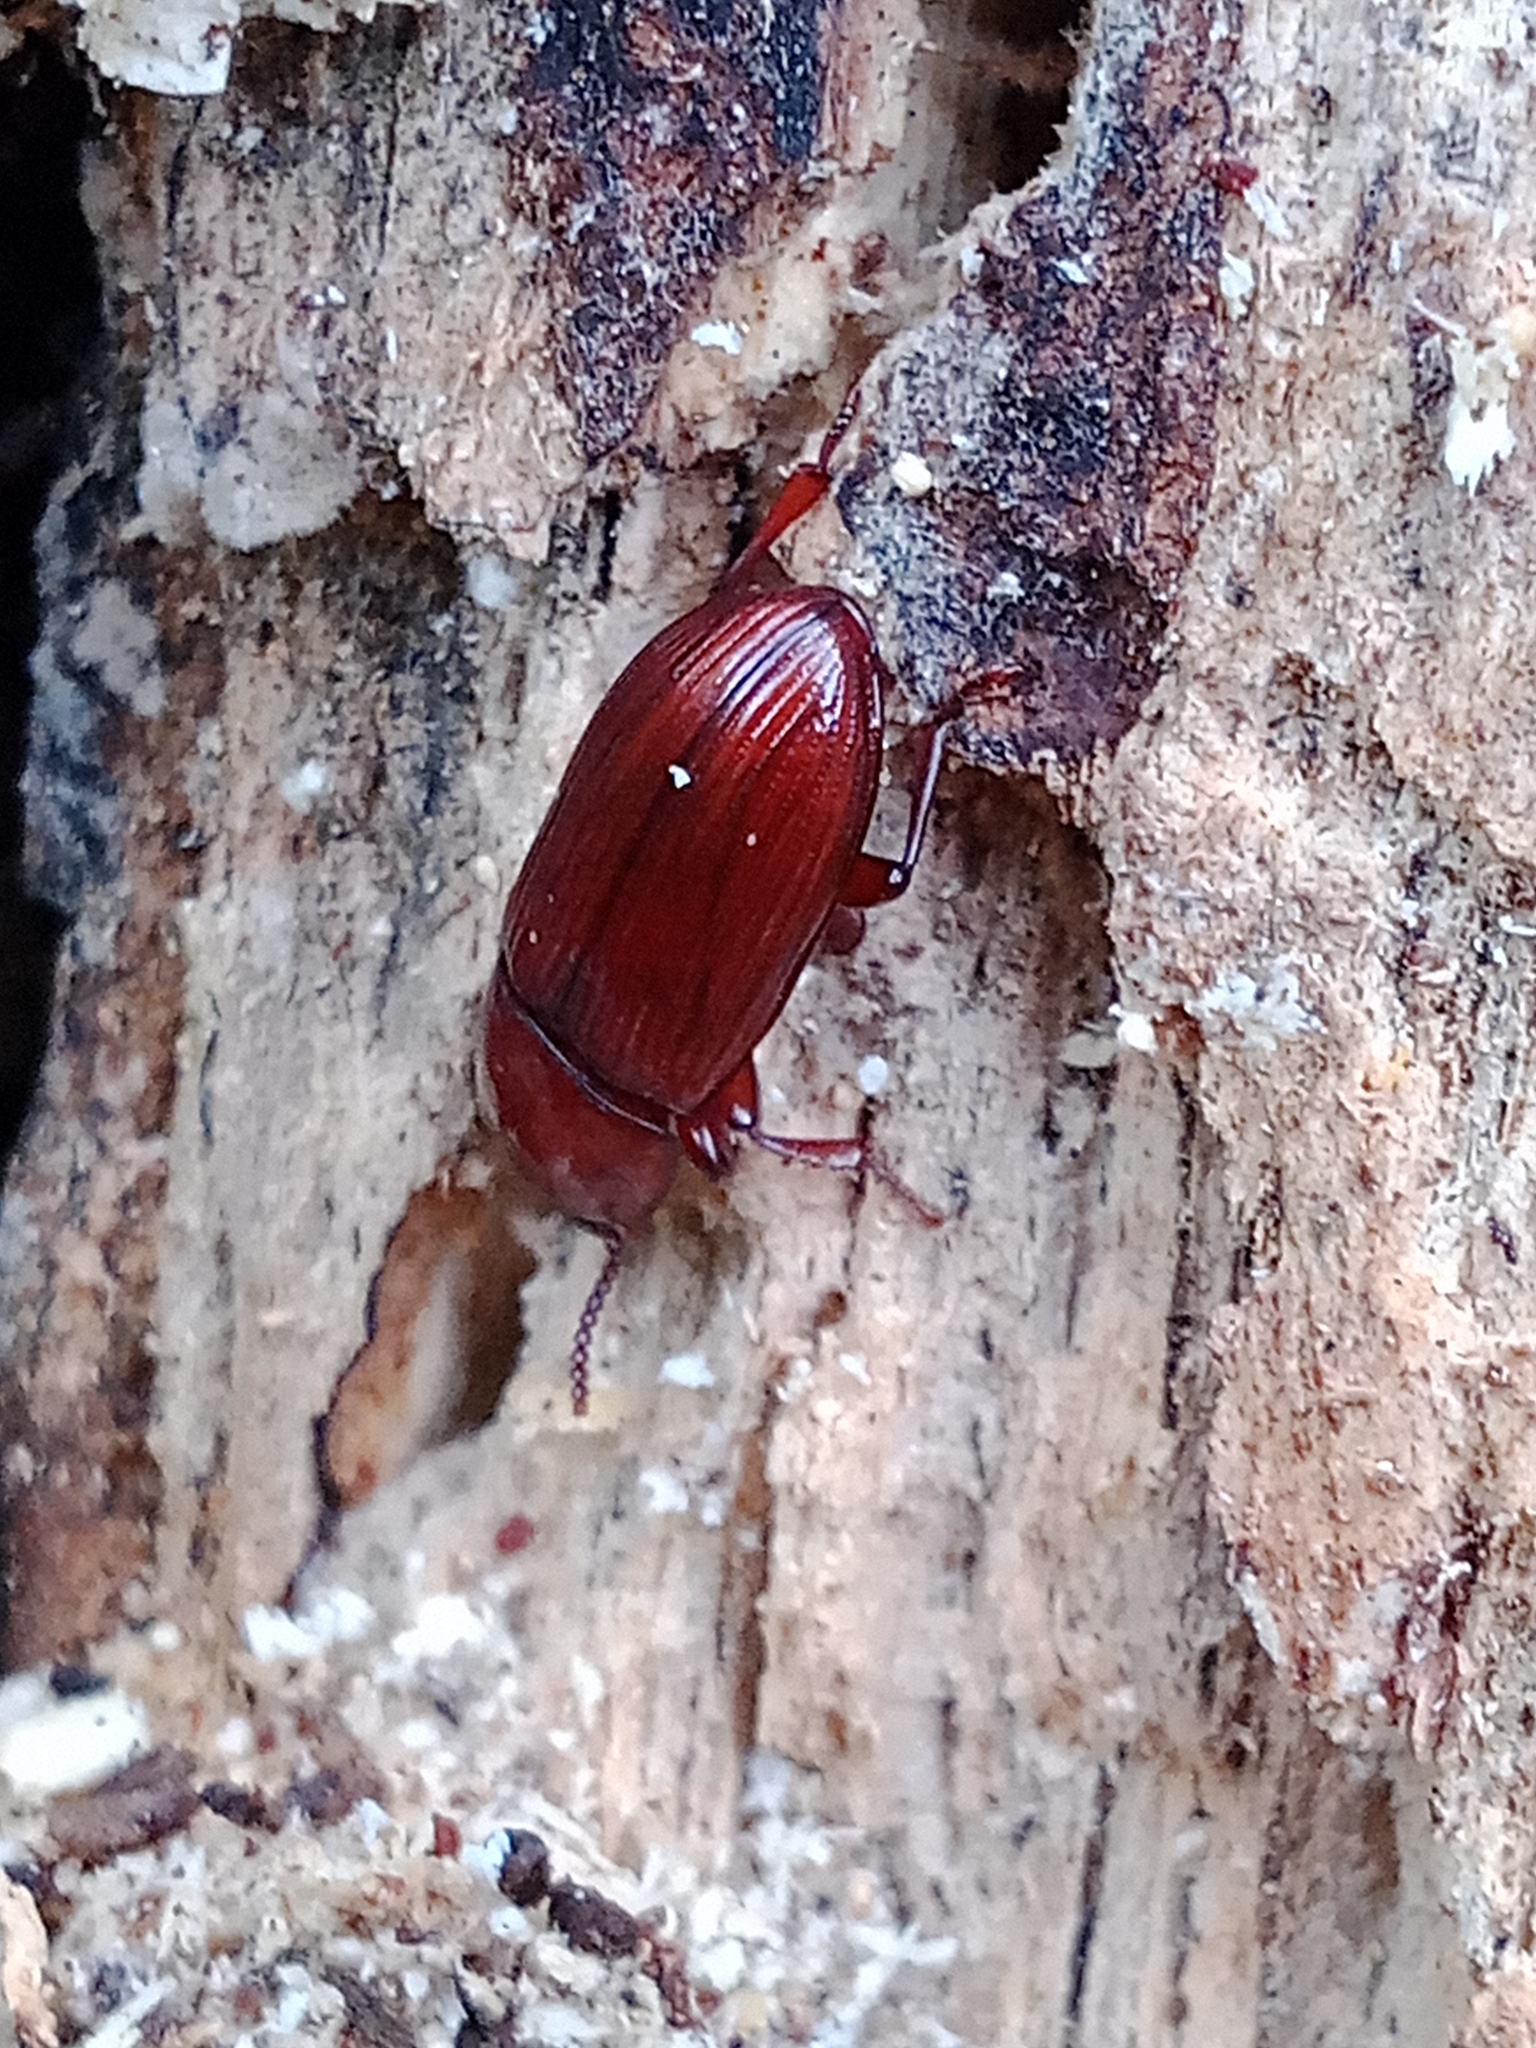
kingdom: Animalia
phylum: Arthropoda
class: Insecta
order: Coleoptera
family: Tenebrionidae
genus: Uloma
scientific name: Uloma culinaris
